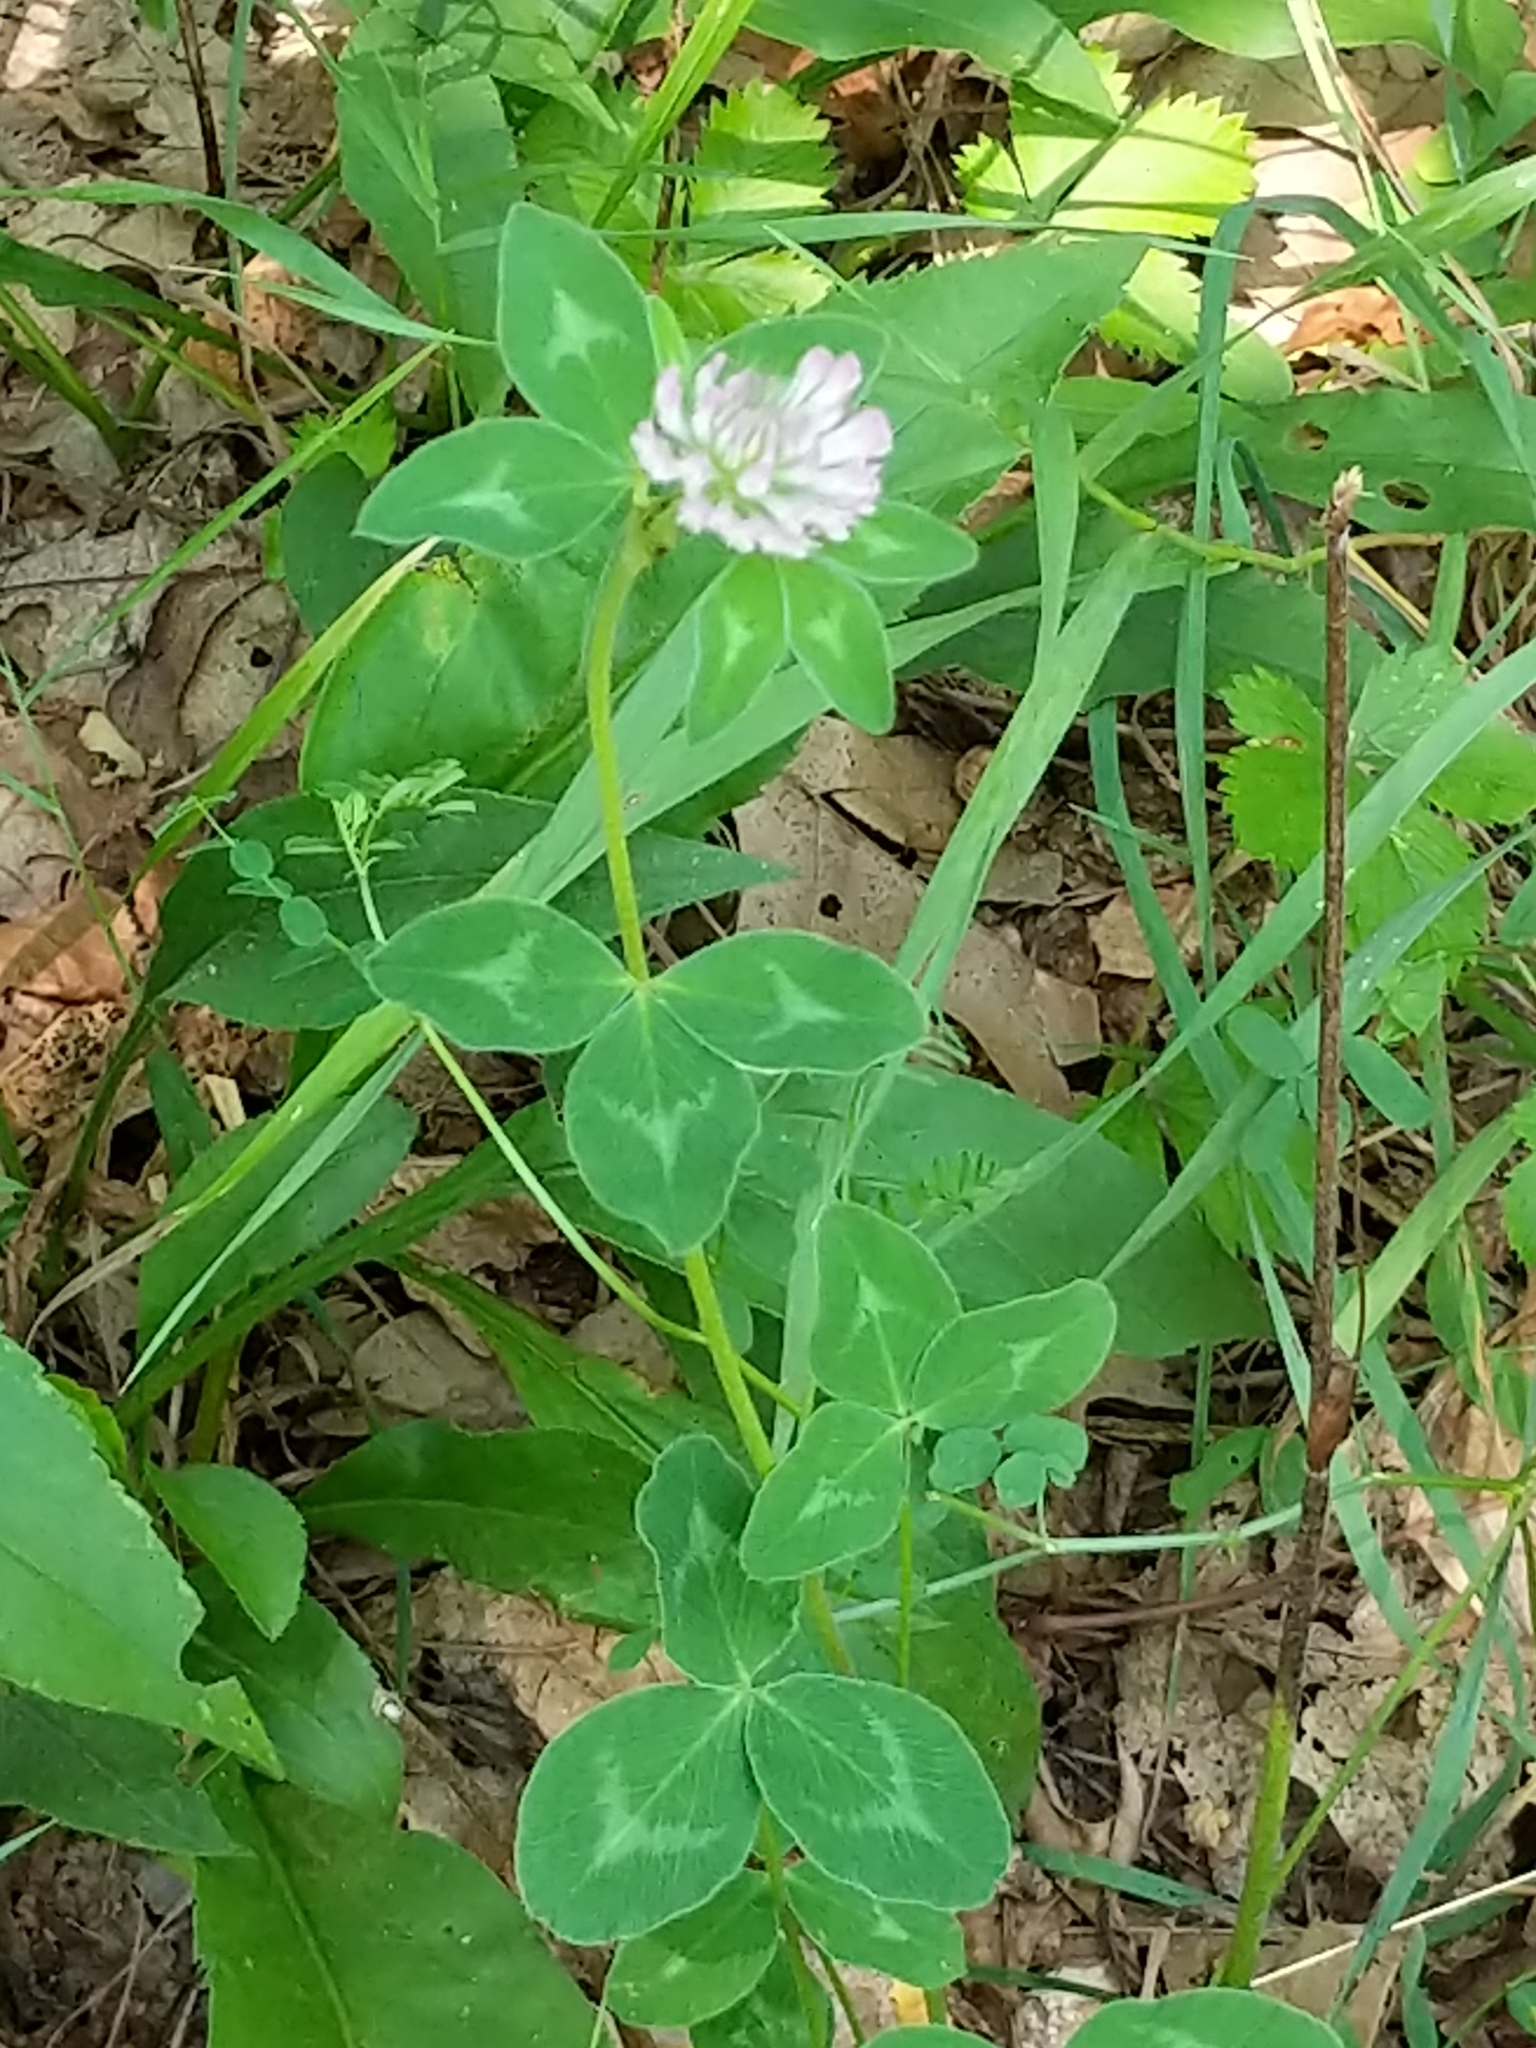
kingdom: Plantae
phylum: Tracheophyta
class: Magnoliopsida
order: Fabales
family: Fabaceae
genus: Trifolium
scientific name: Trifolium pratense
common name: Red clover
